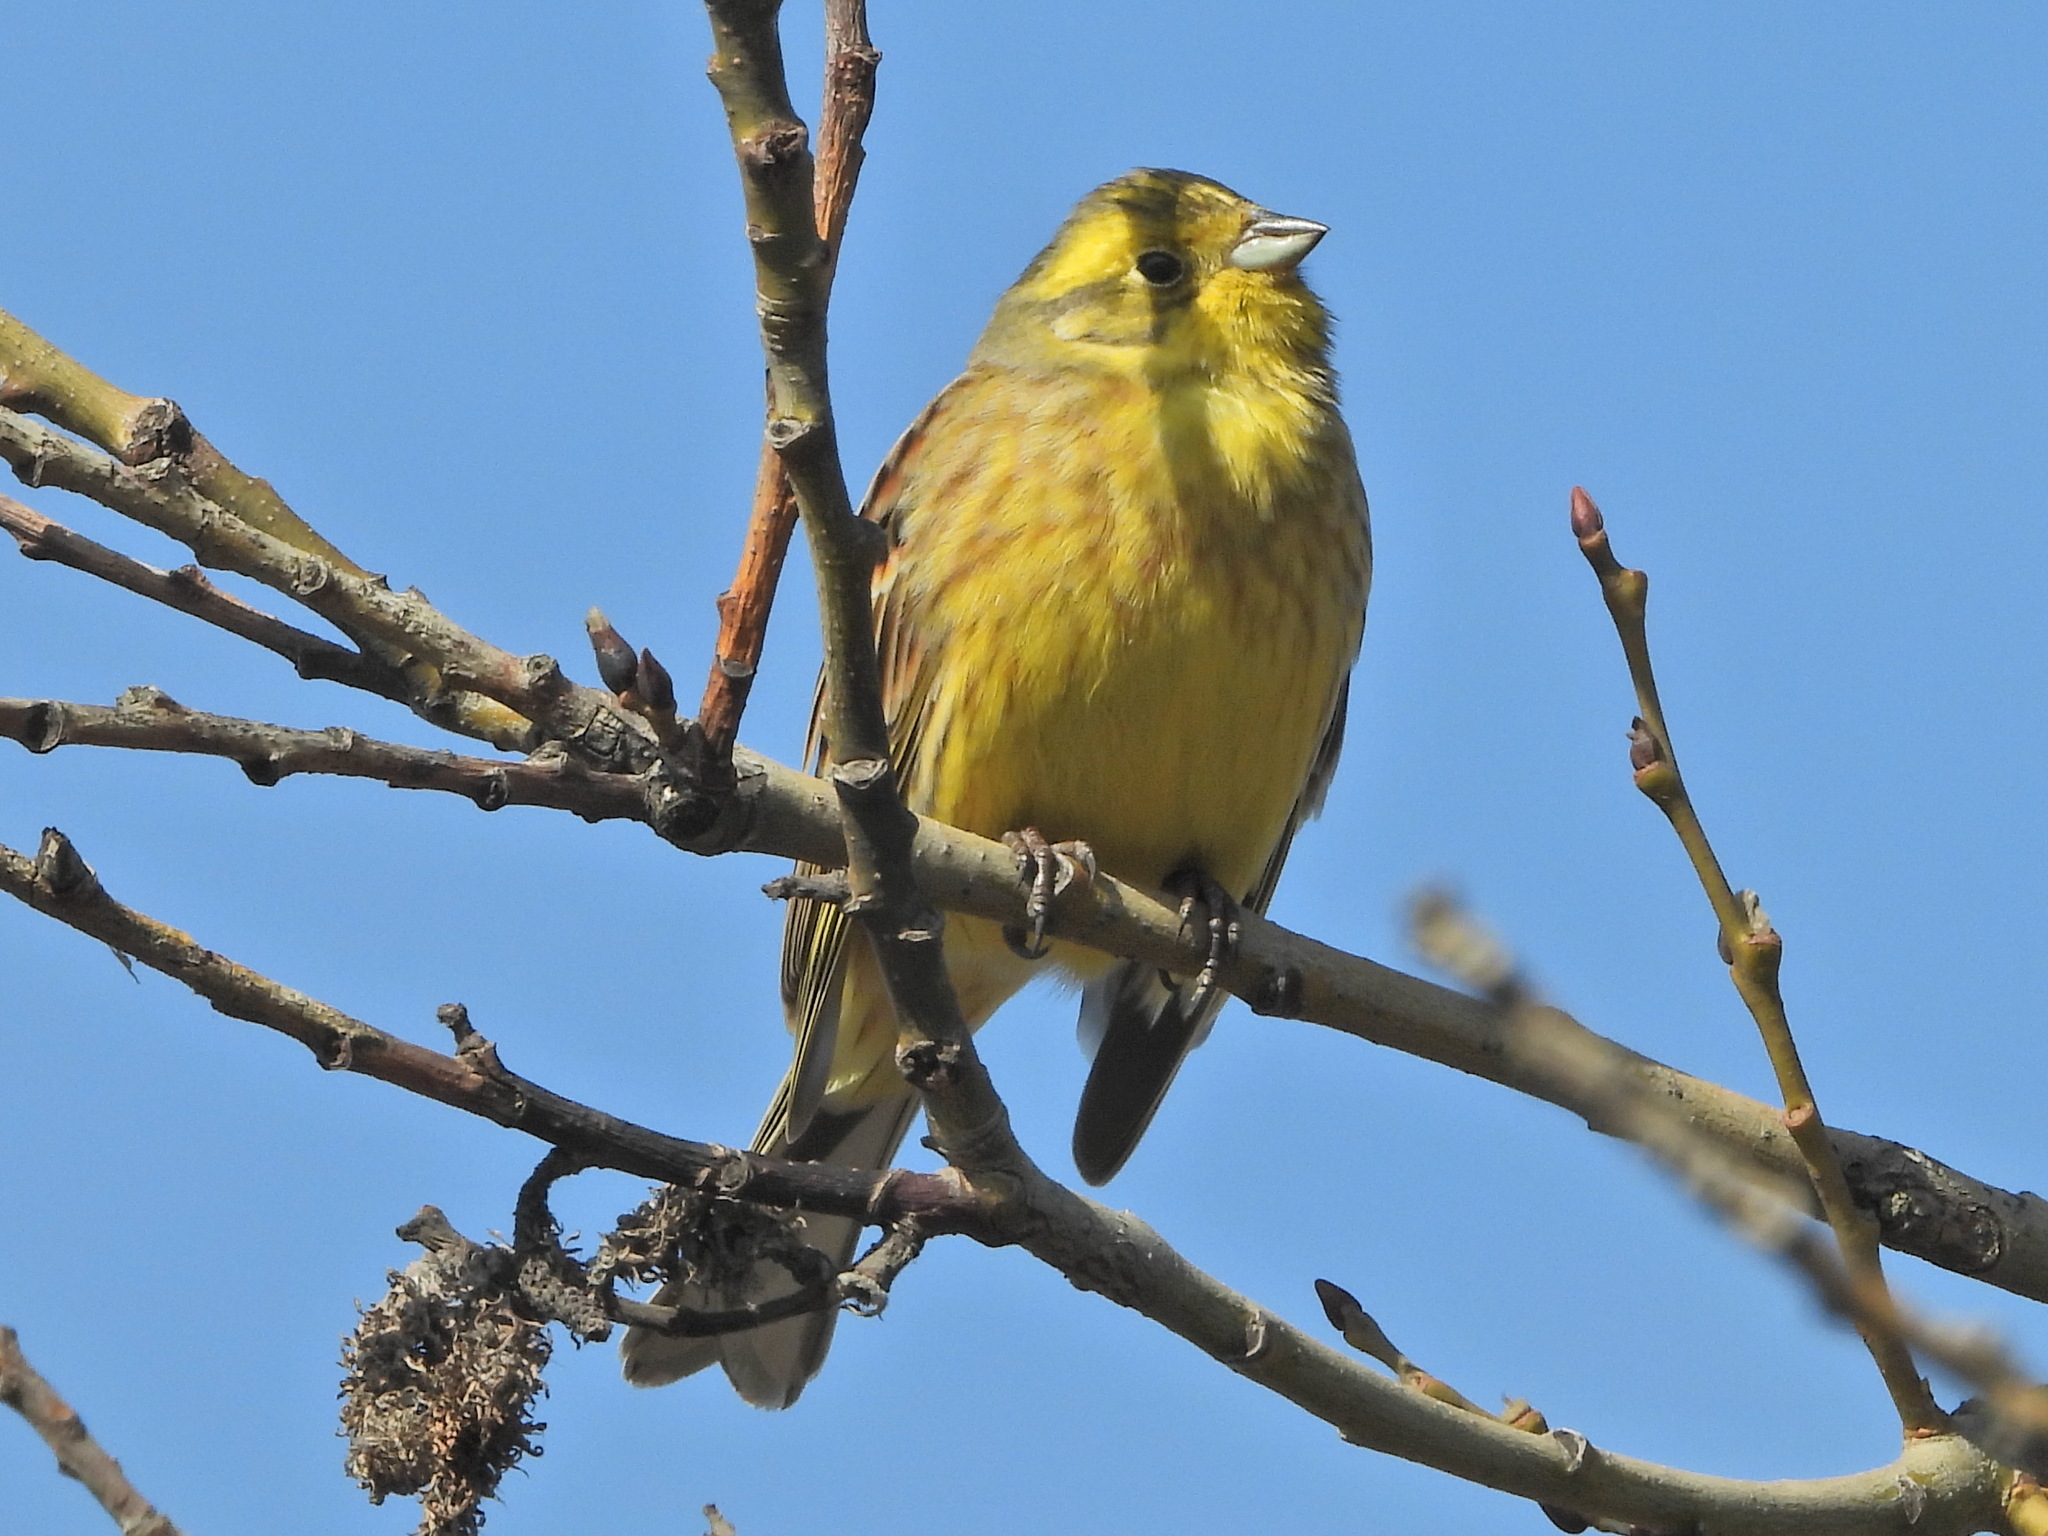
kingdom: Animalia
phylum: Chordata
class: Aves
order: Passeriformes
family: Emberizidae
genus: Emberiza
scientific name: Emberiza citrinella
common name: Yellowhammer
